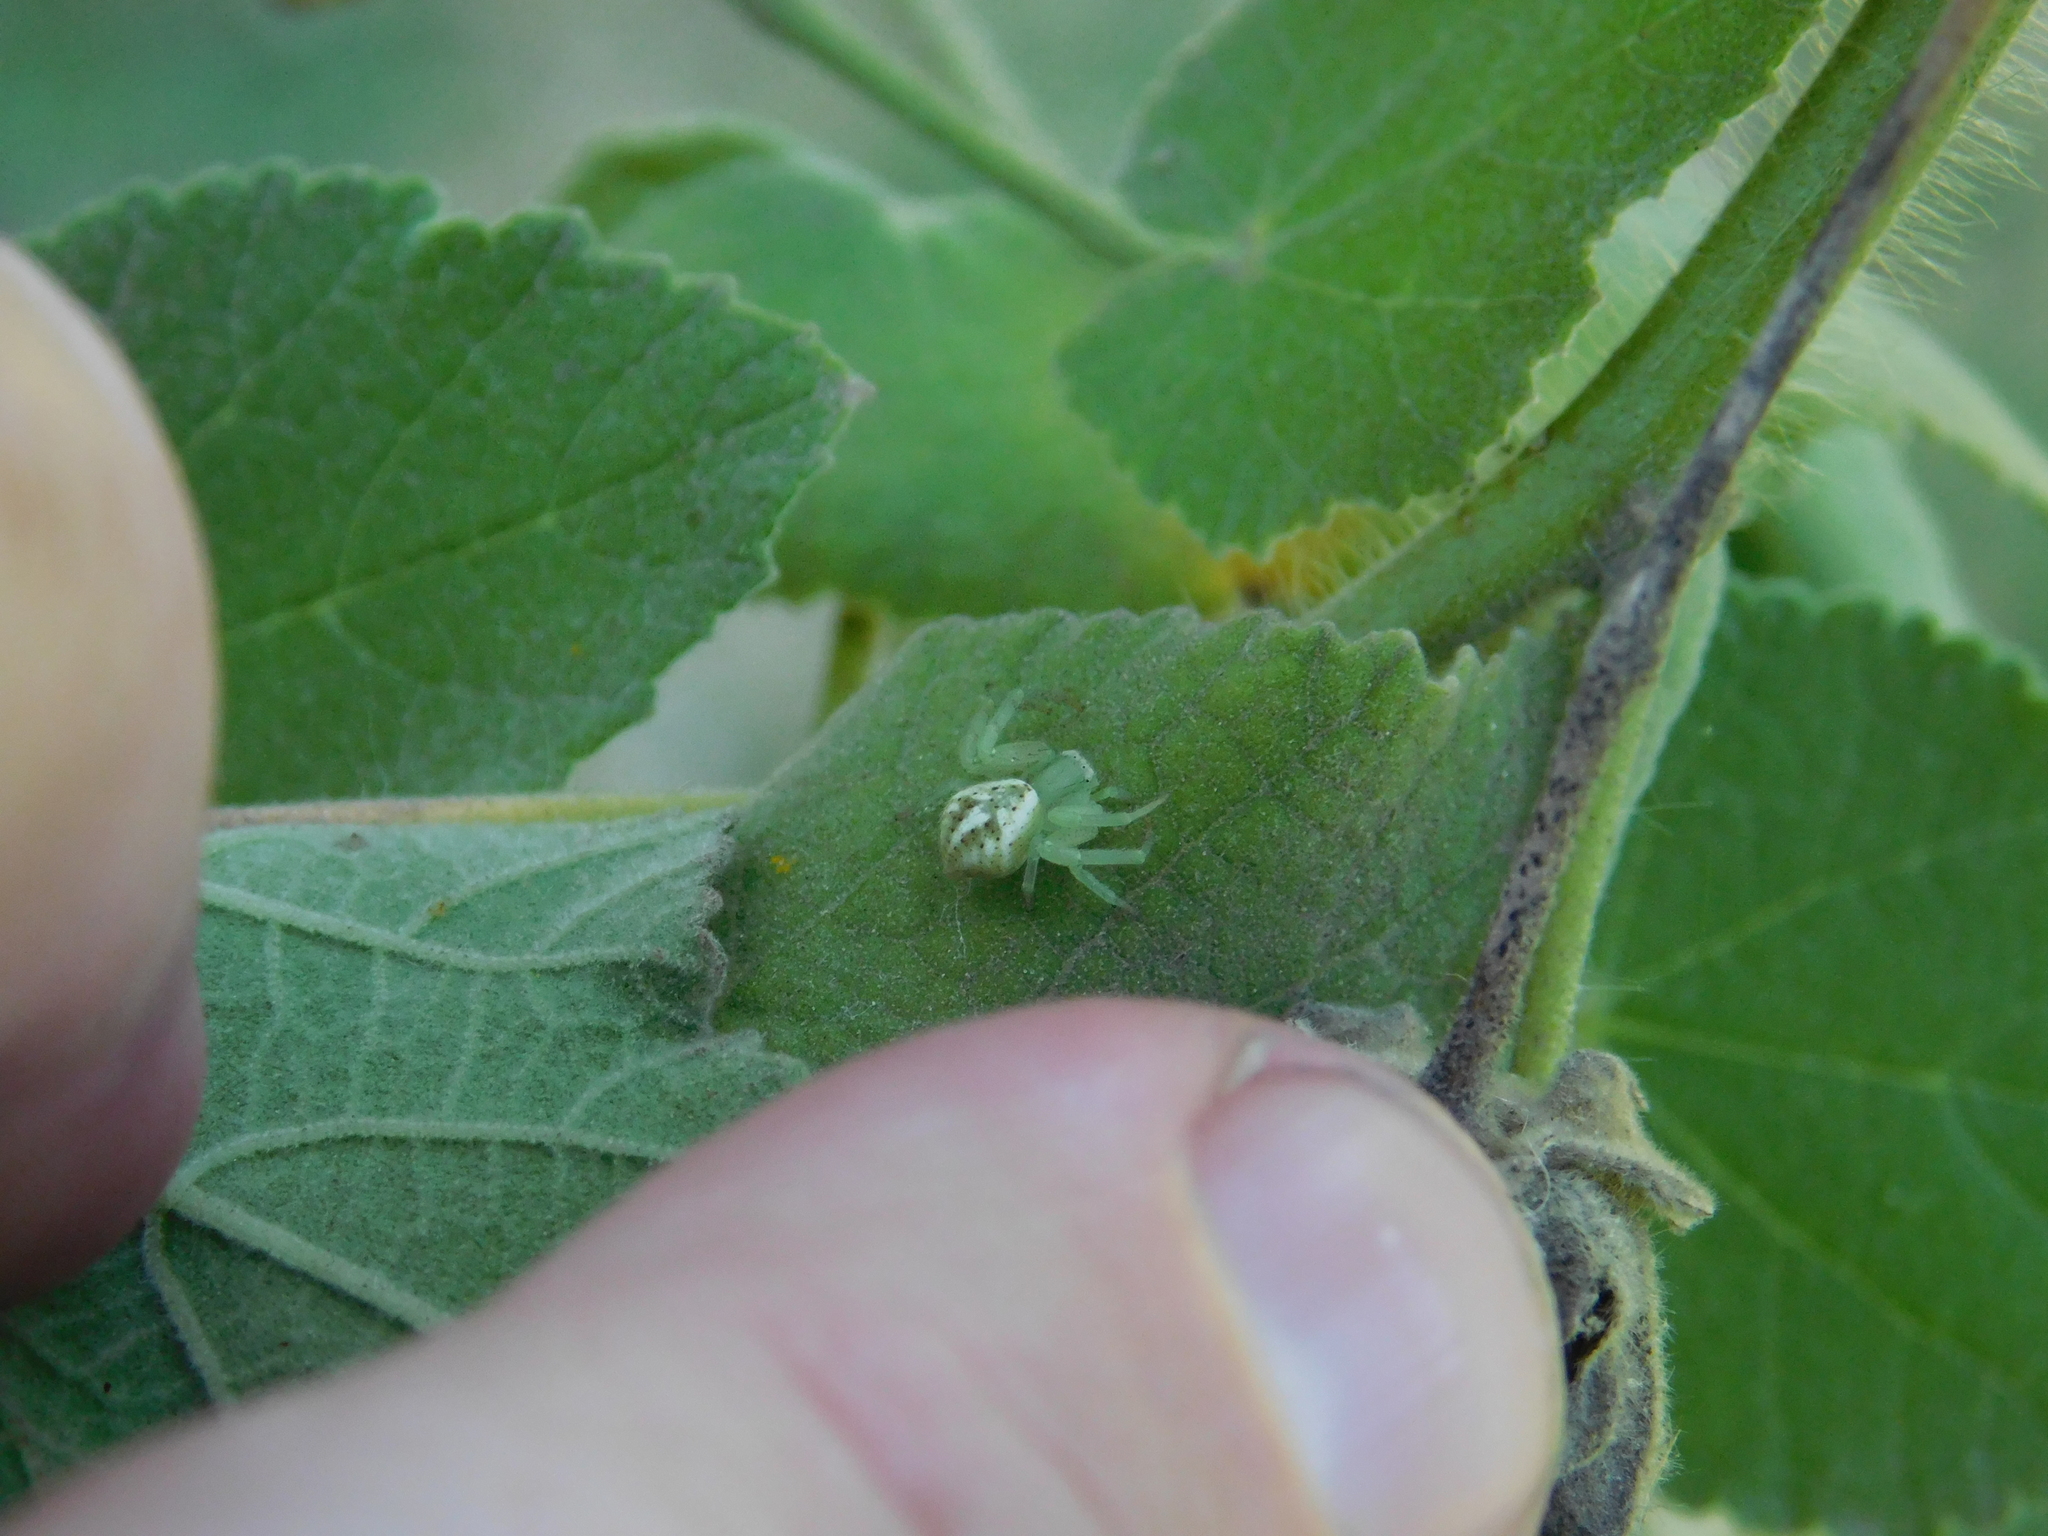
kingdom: Animalia
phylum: Arthropoda
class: Arachnida
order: Araneae
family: Thomisidae
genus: Misumenops
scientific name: Misumenops
